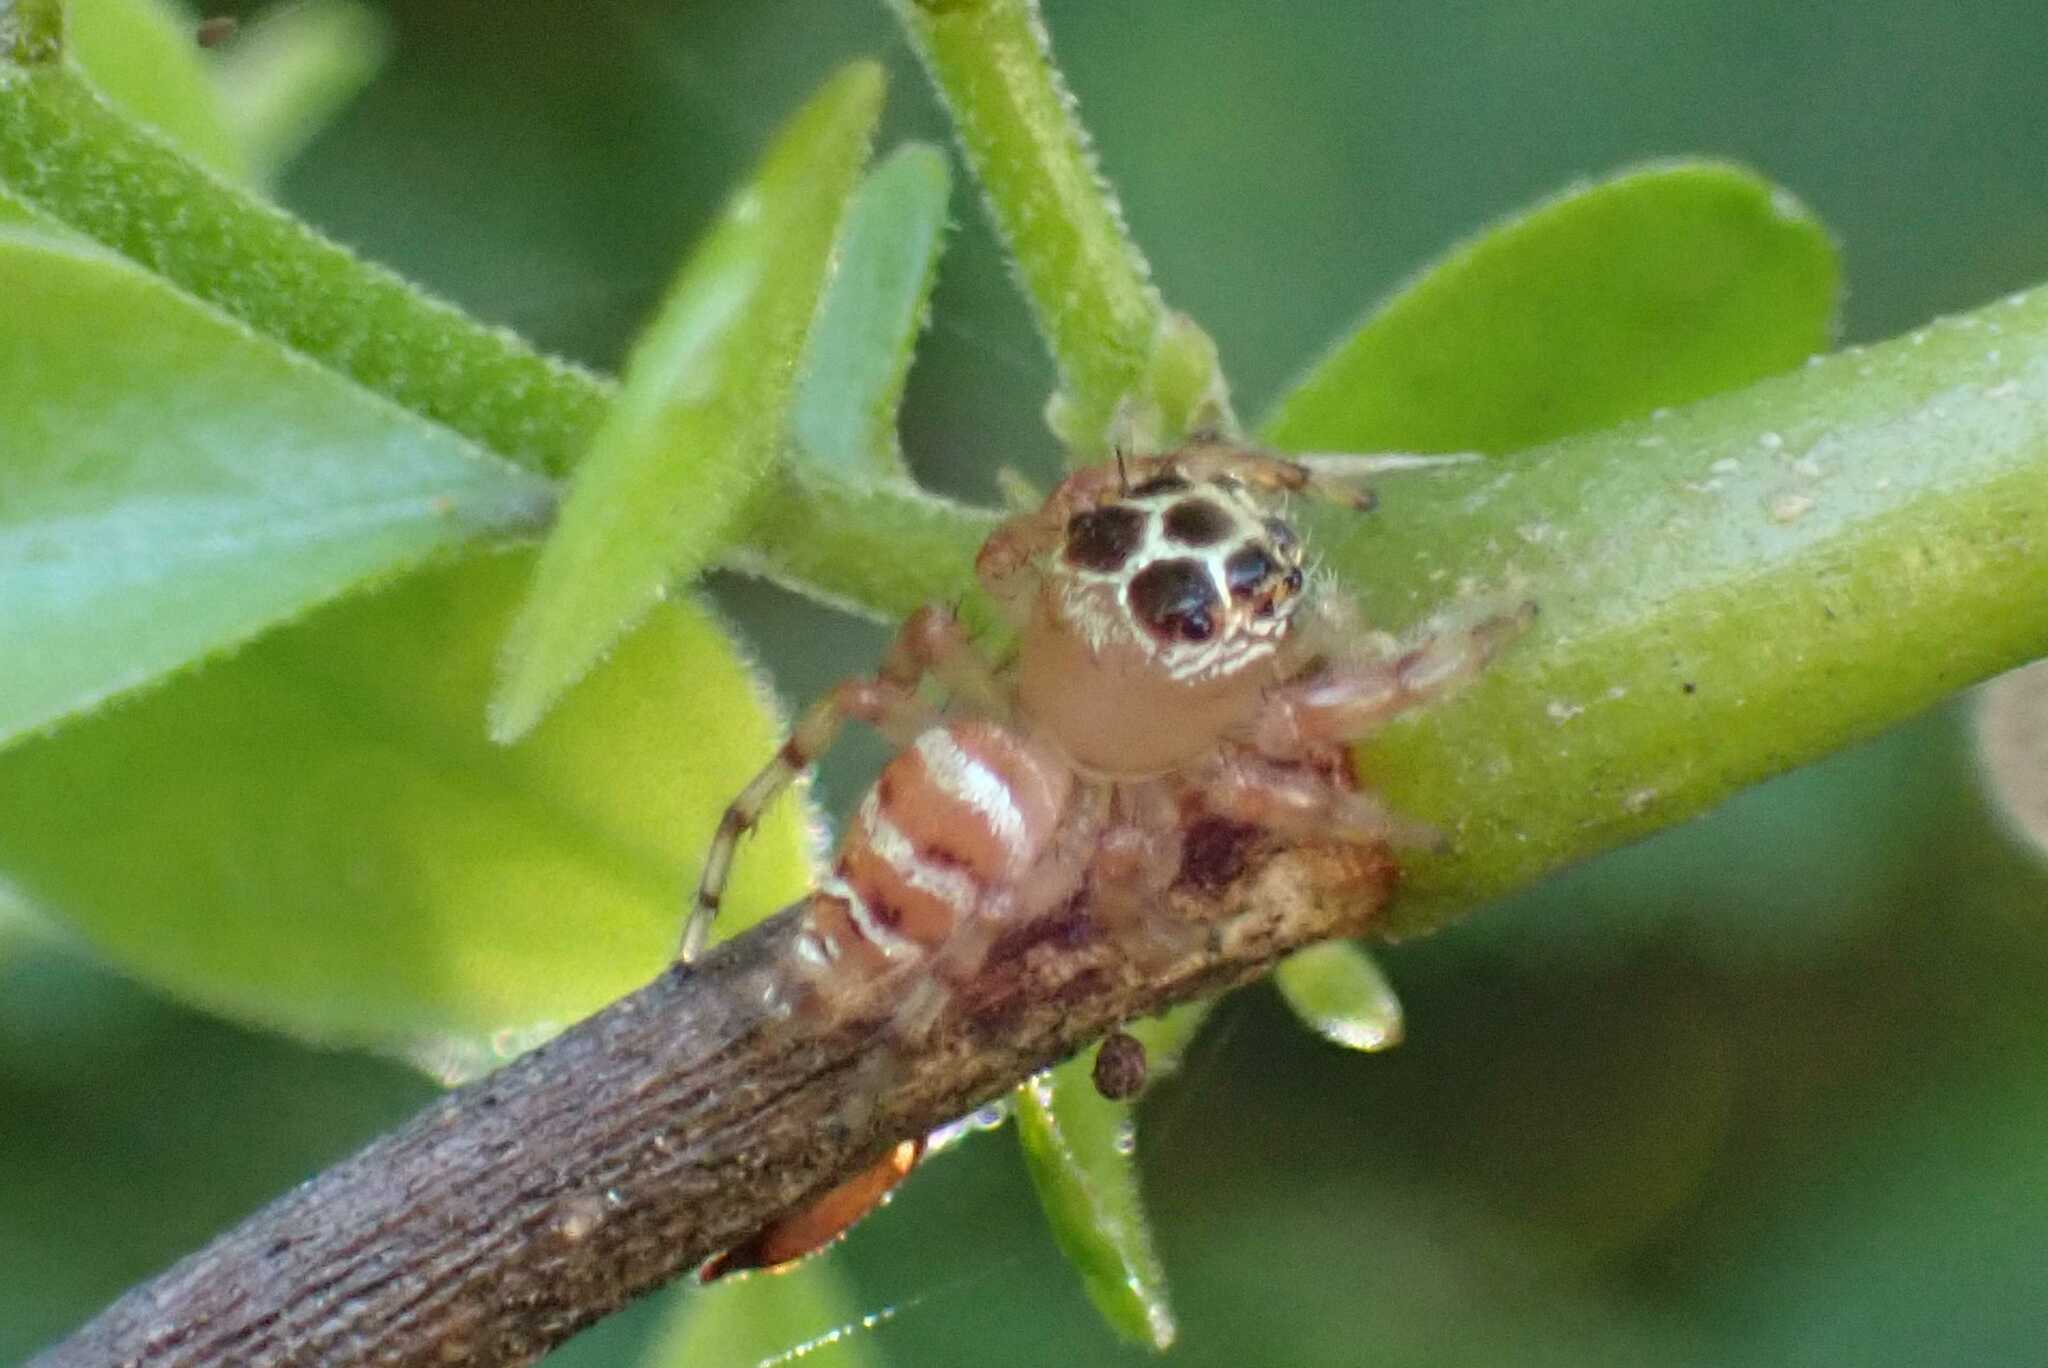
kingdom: Animalia
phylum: Arthropoda
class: Arachnida
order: Araneae
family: Salticidae
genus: Thyene
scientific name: Thyene natalii
